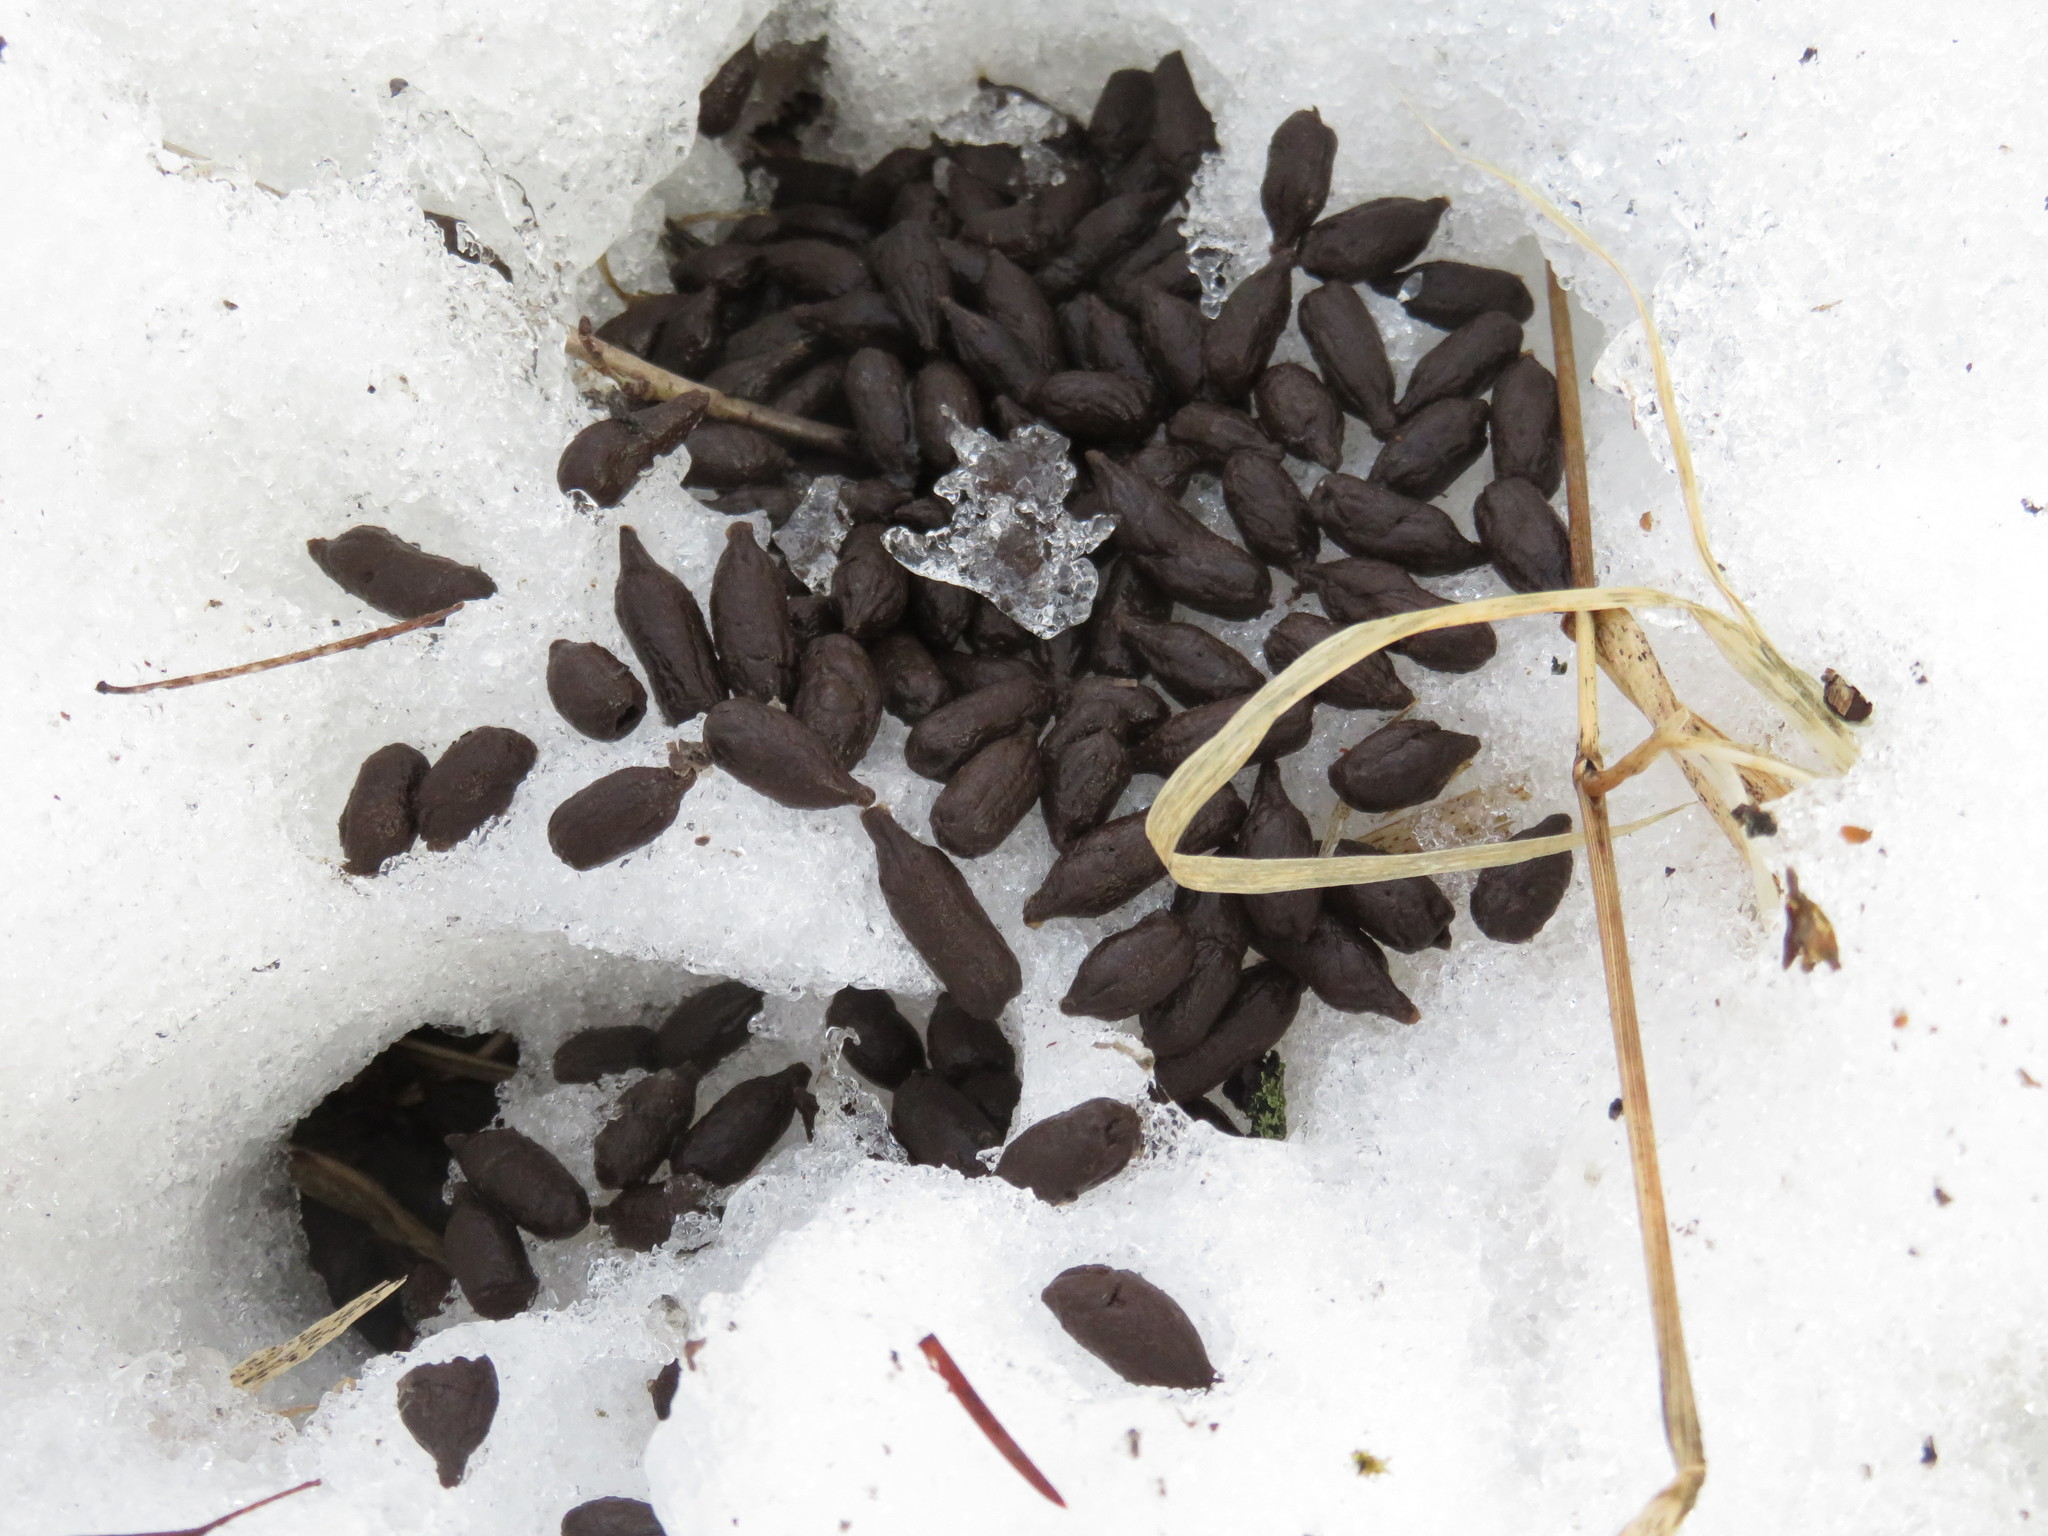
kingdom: Animalia
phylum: Chordata
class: Mammalia
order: Artiodactyla
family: Cervidae
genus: Odocoileus
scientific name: Odocoileus virginianus
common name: White-tailed deer
